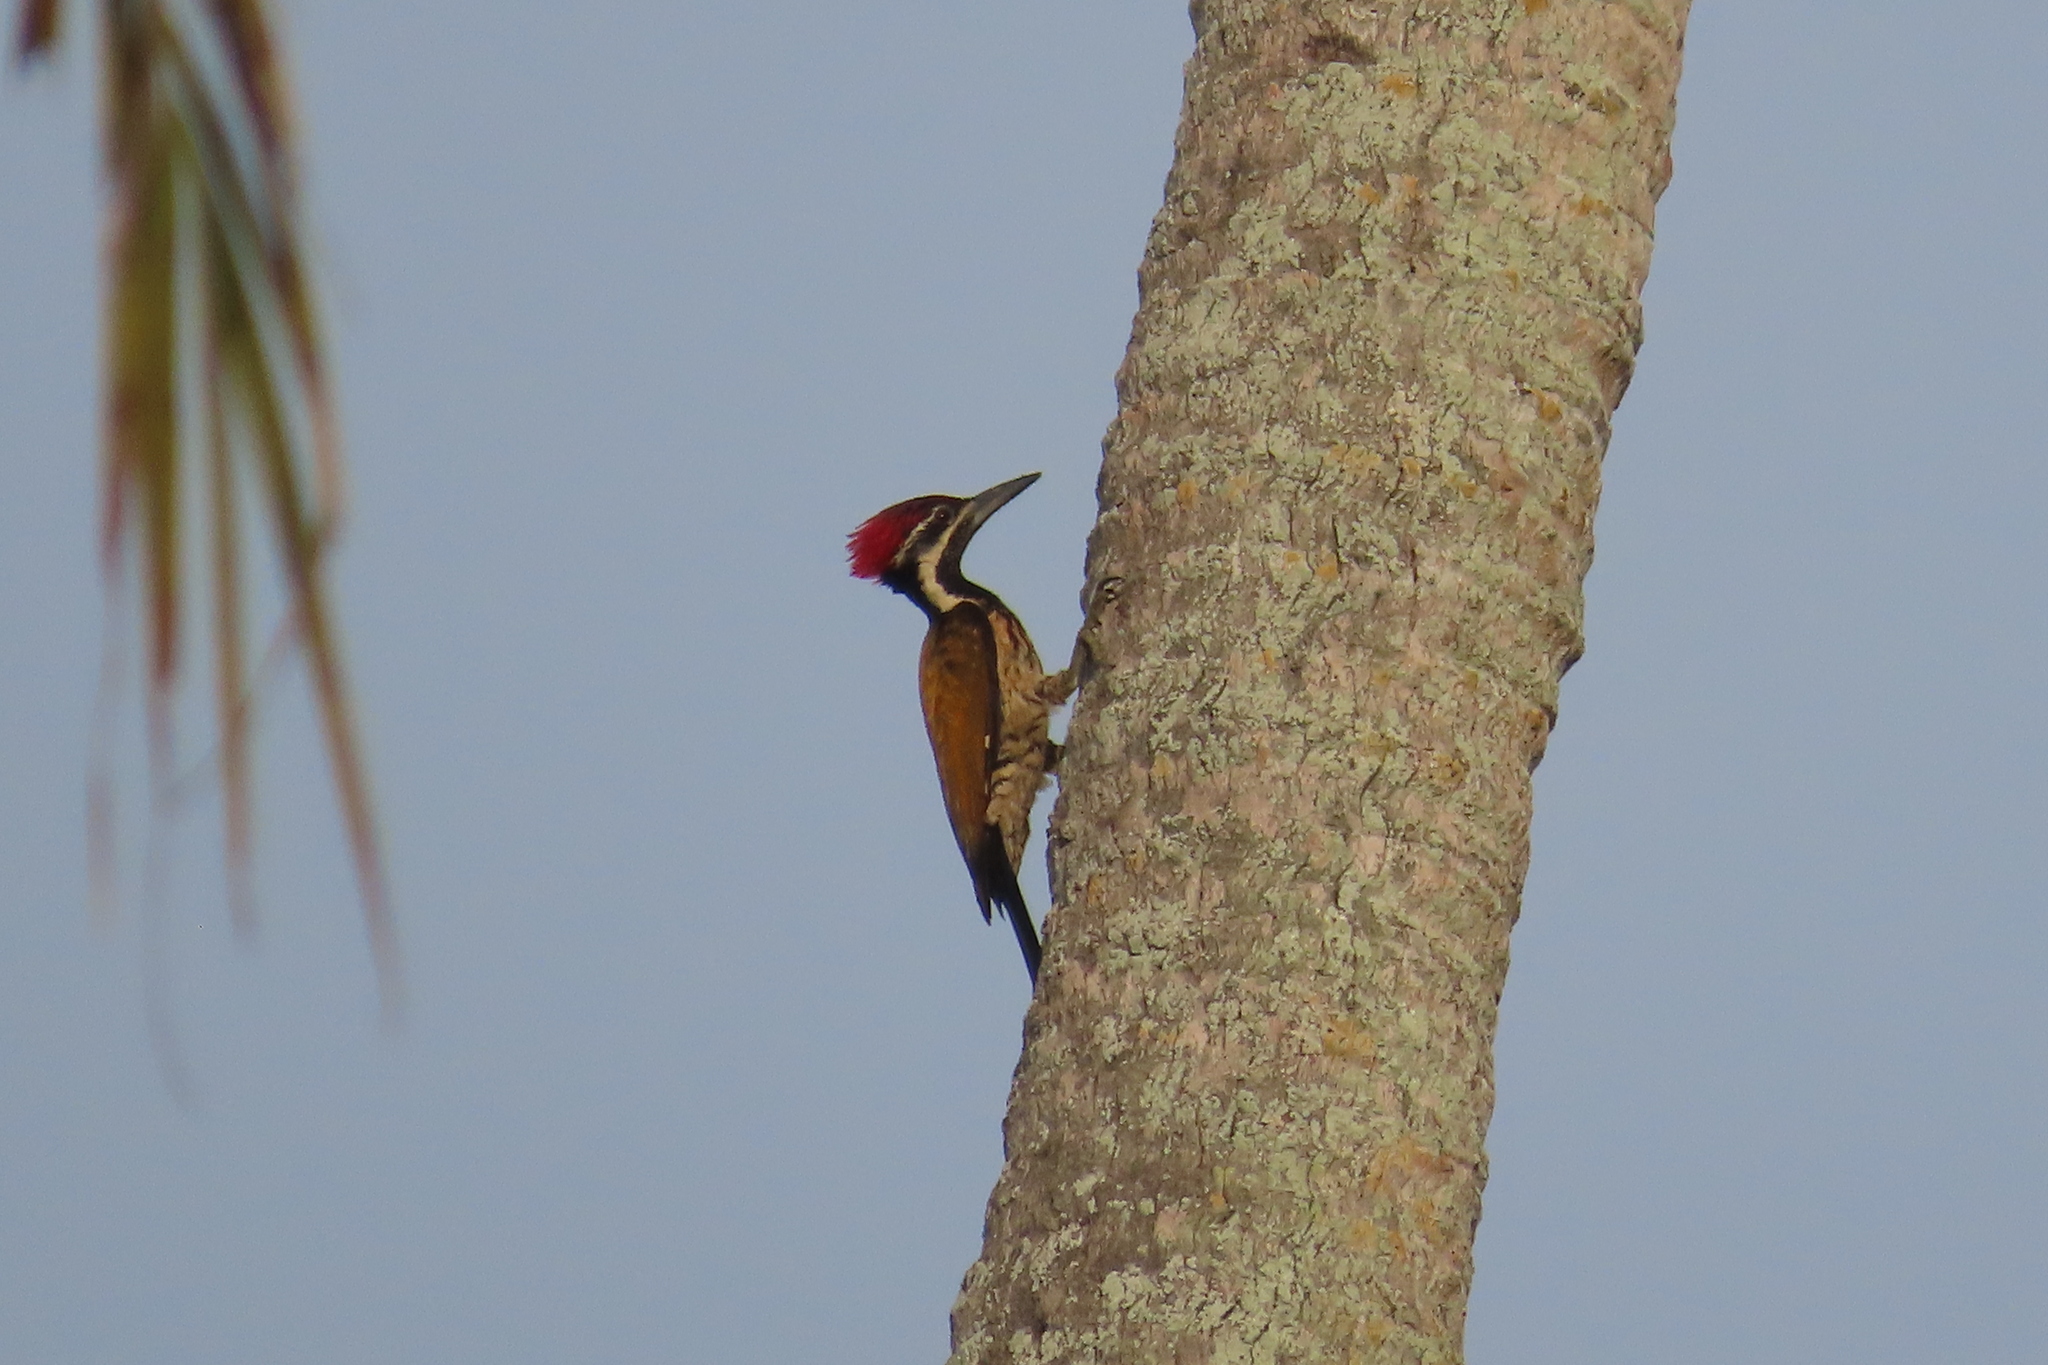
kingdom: Animalia
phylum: Chordata
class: Aves
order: Piciformes
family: Picidae
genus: Dinopium
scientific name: Dinopium benghalense
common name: Black-rumped flameback
